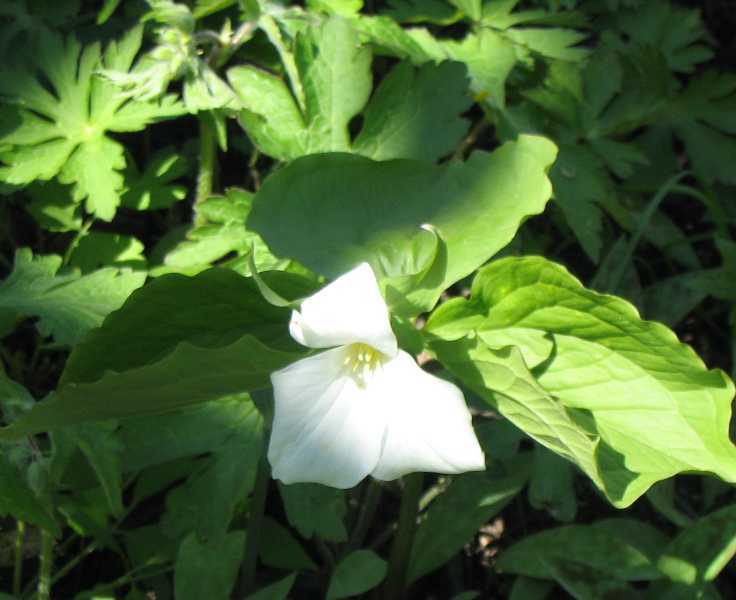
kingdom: Plantae
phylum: Tracheophyta
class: Liliopsida
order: Liliales
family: Melanthiaceae
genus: Trillium
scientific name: Trillium grandiflorum
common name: Great white trillium
